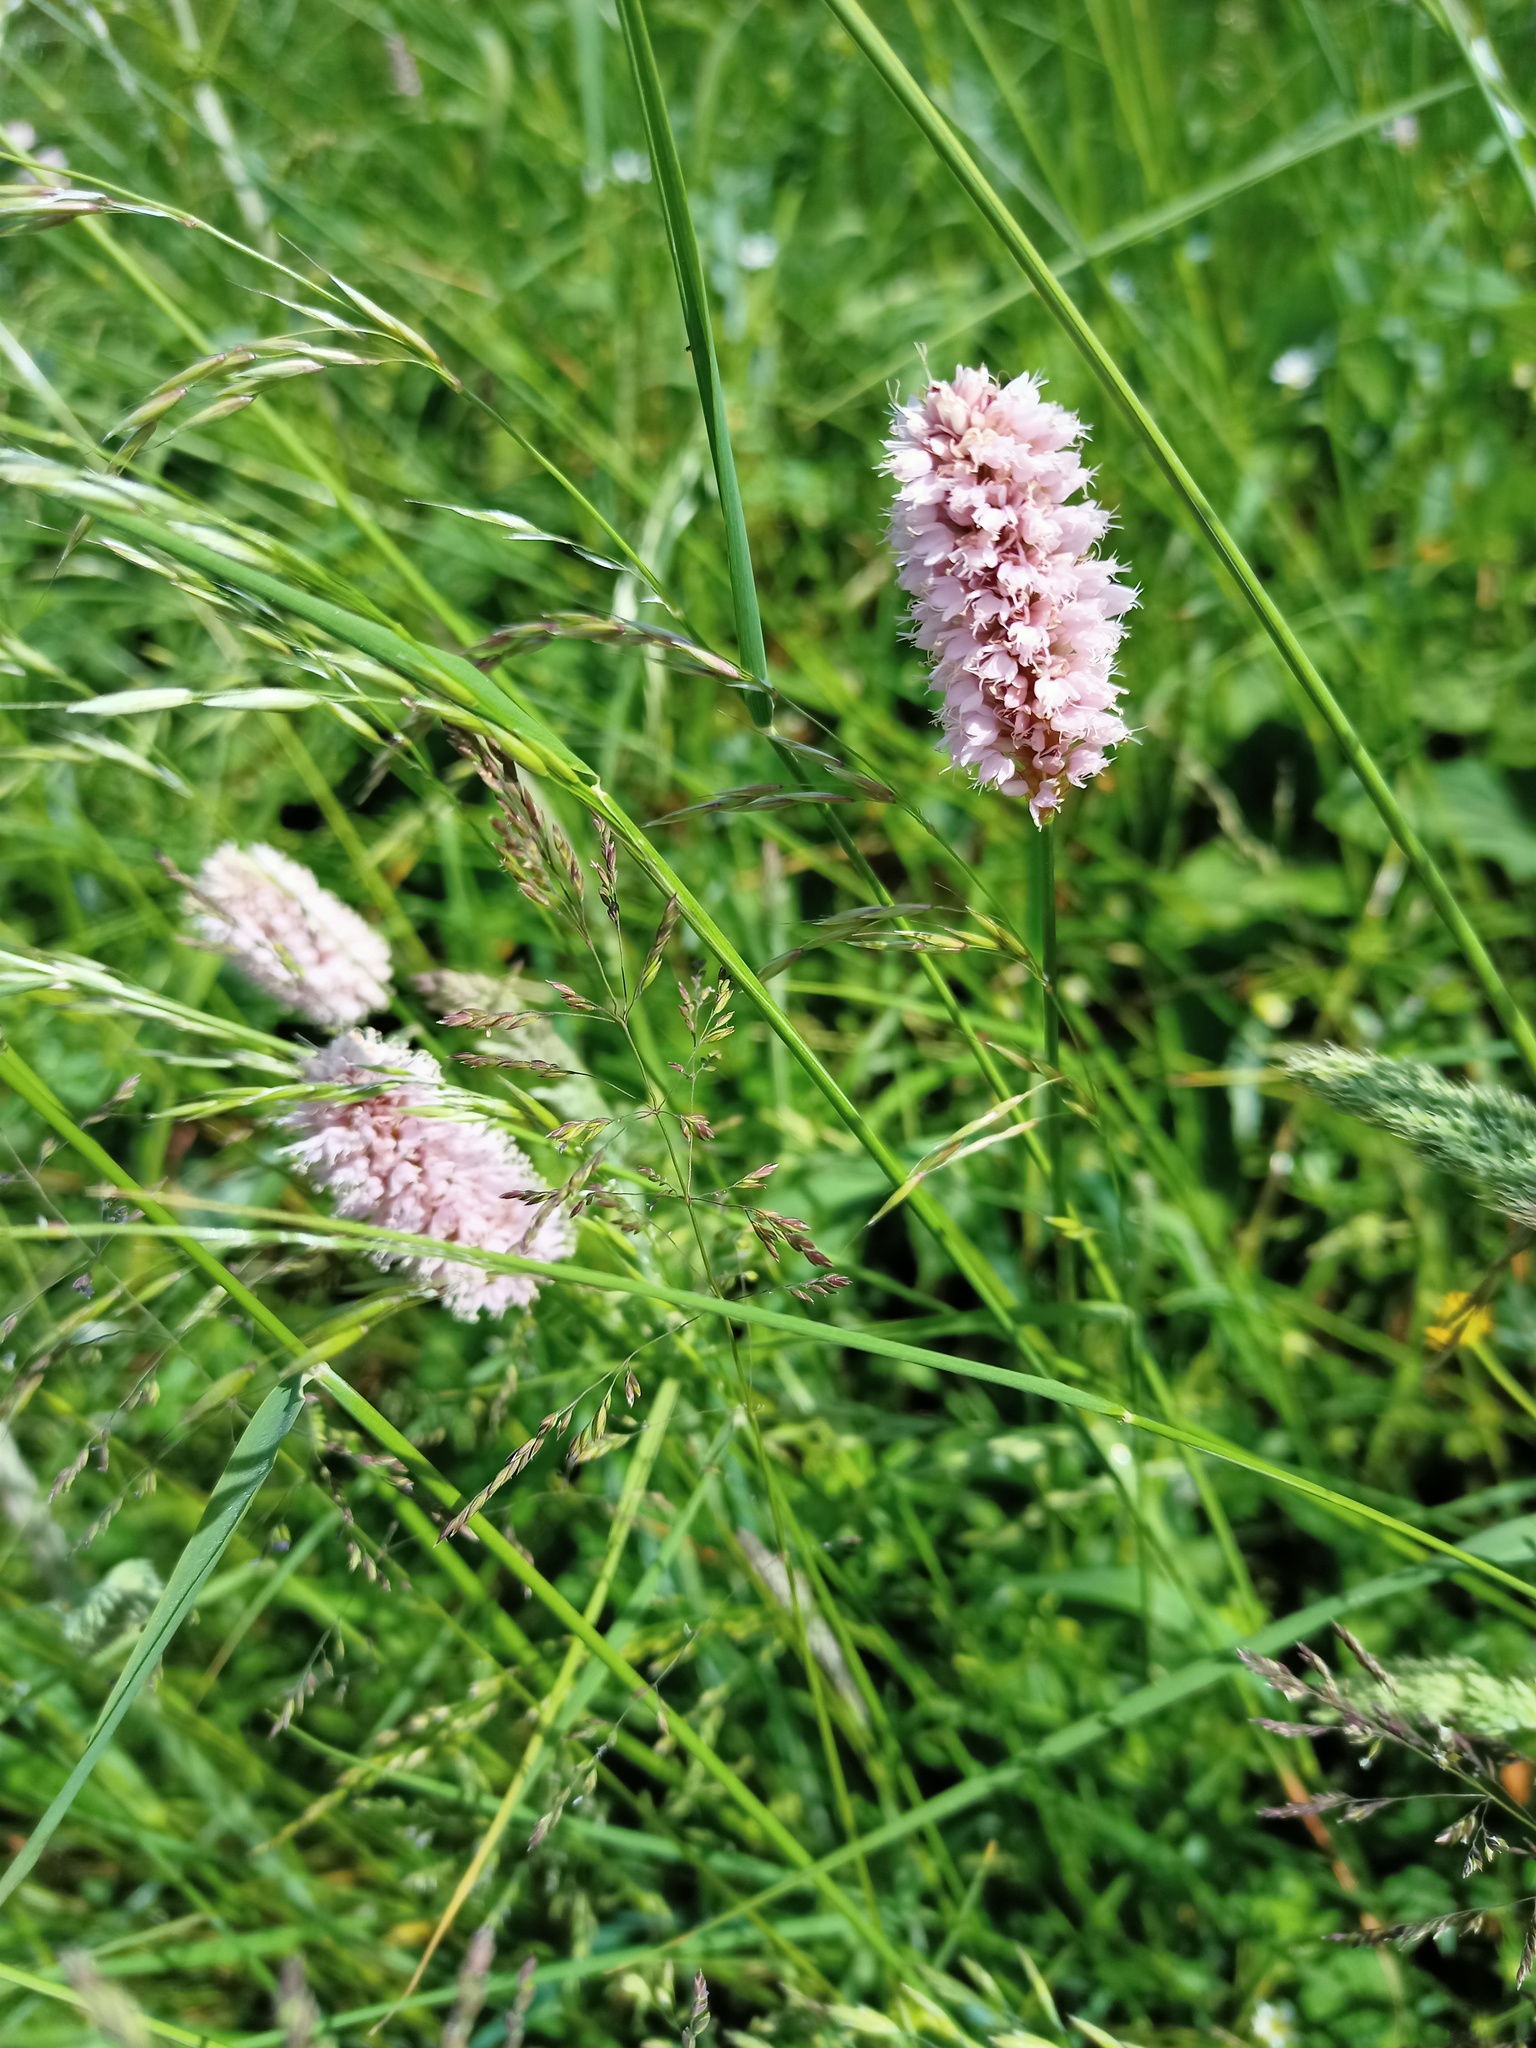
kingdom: Plantae
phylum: Tracheophyta
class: Magnoliopsida
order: Caryophyllales
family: Polygonaceae
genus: Bistorta
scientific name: Bistorta officinalis
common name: Common bistort
